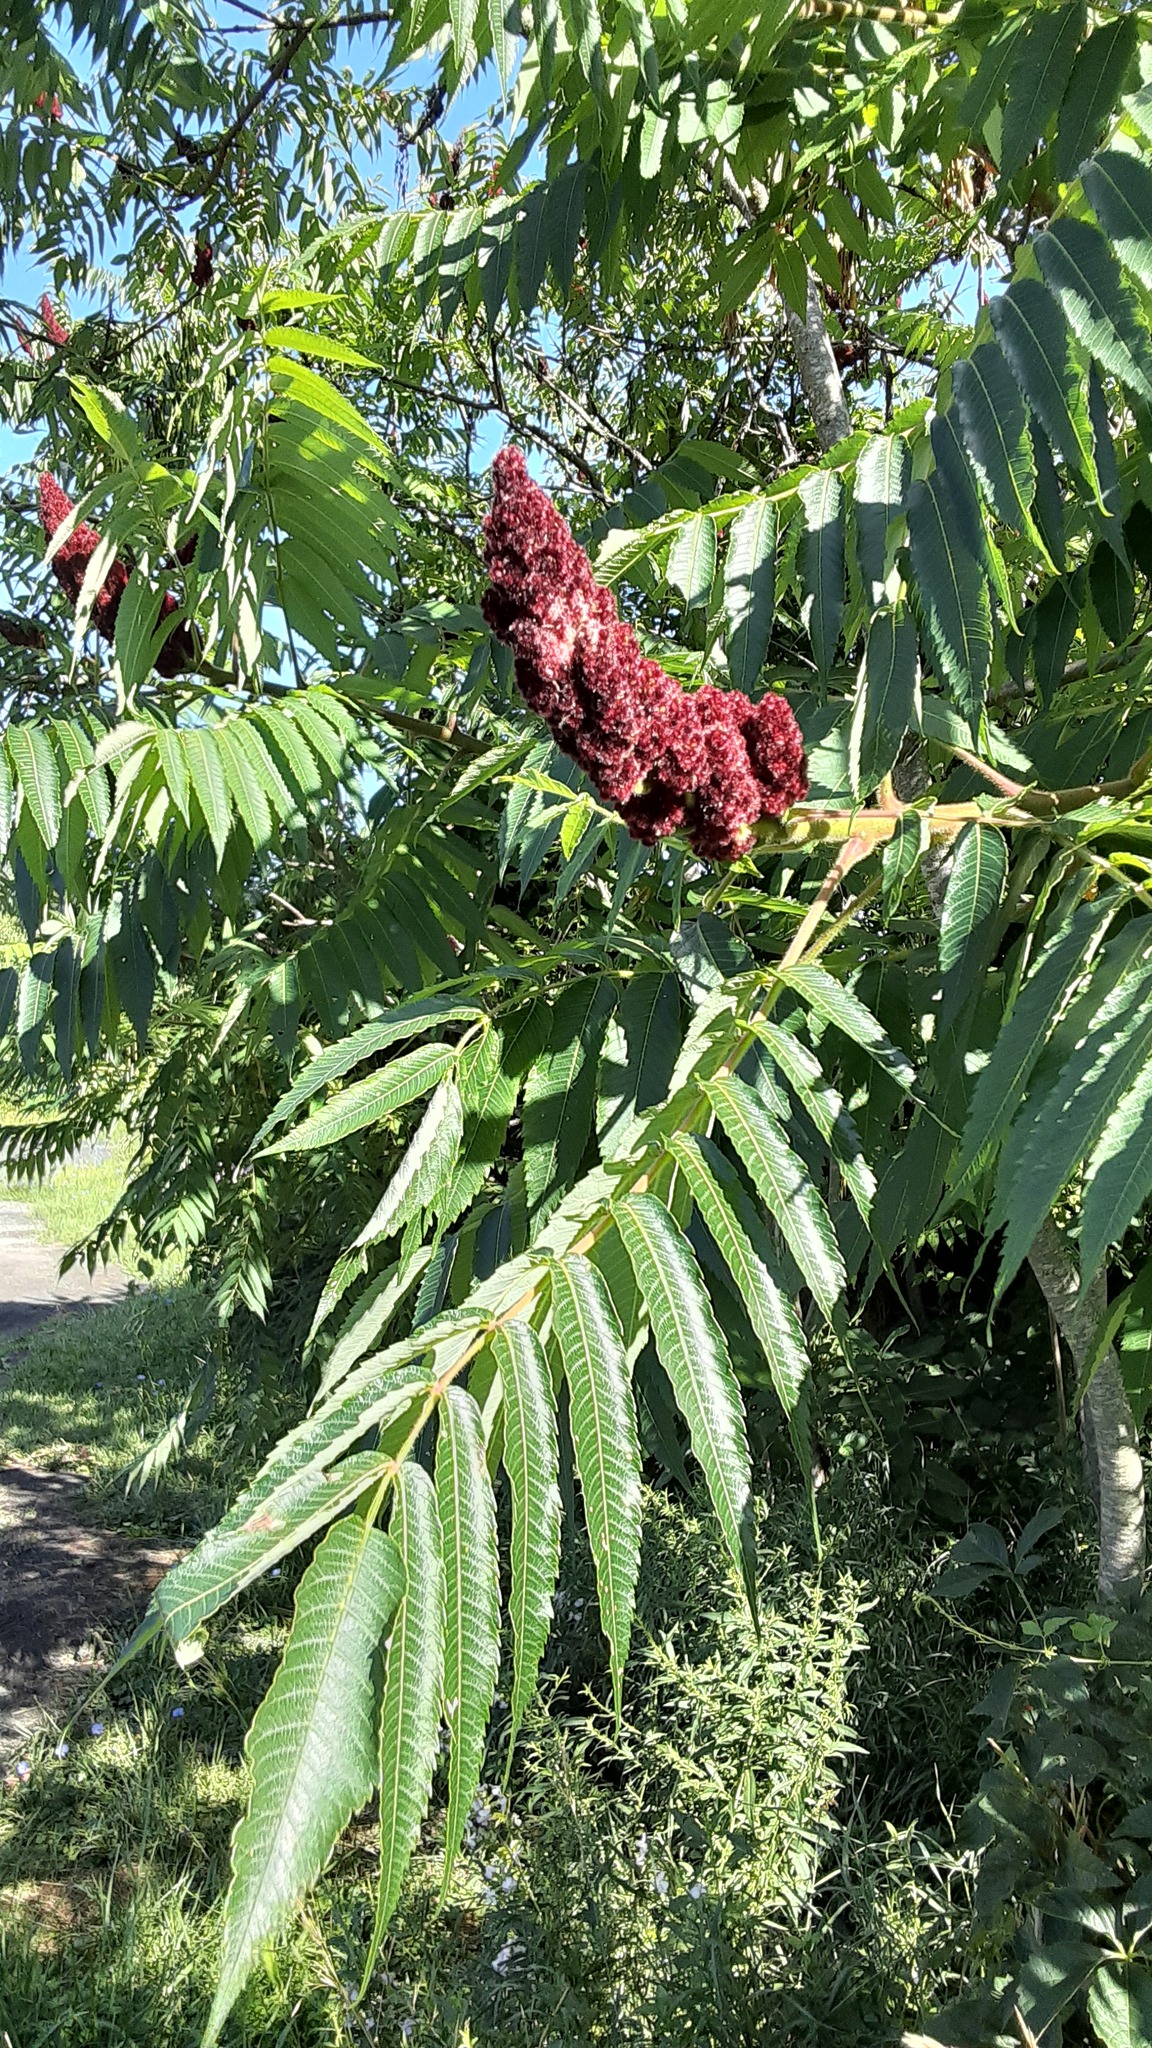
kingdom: Plantae
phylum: Tracheophyta
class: Magnoliopsida
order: Sapindales
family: Anacardiaceae
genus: Rhus
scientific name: Rhus typhina
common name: Staghorn sumac
